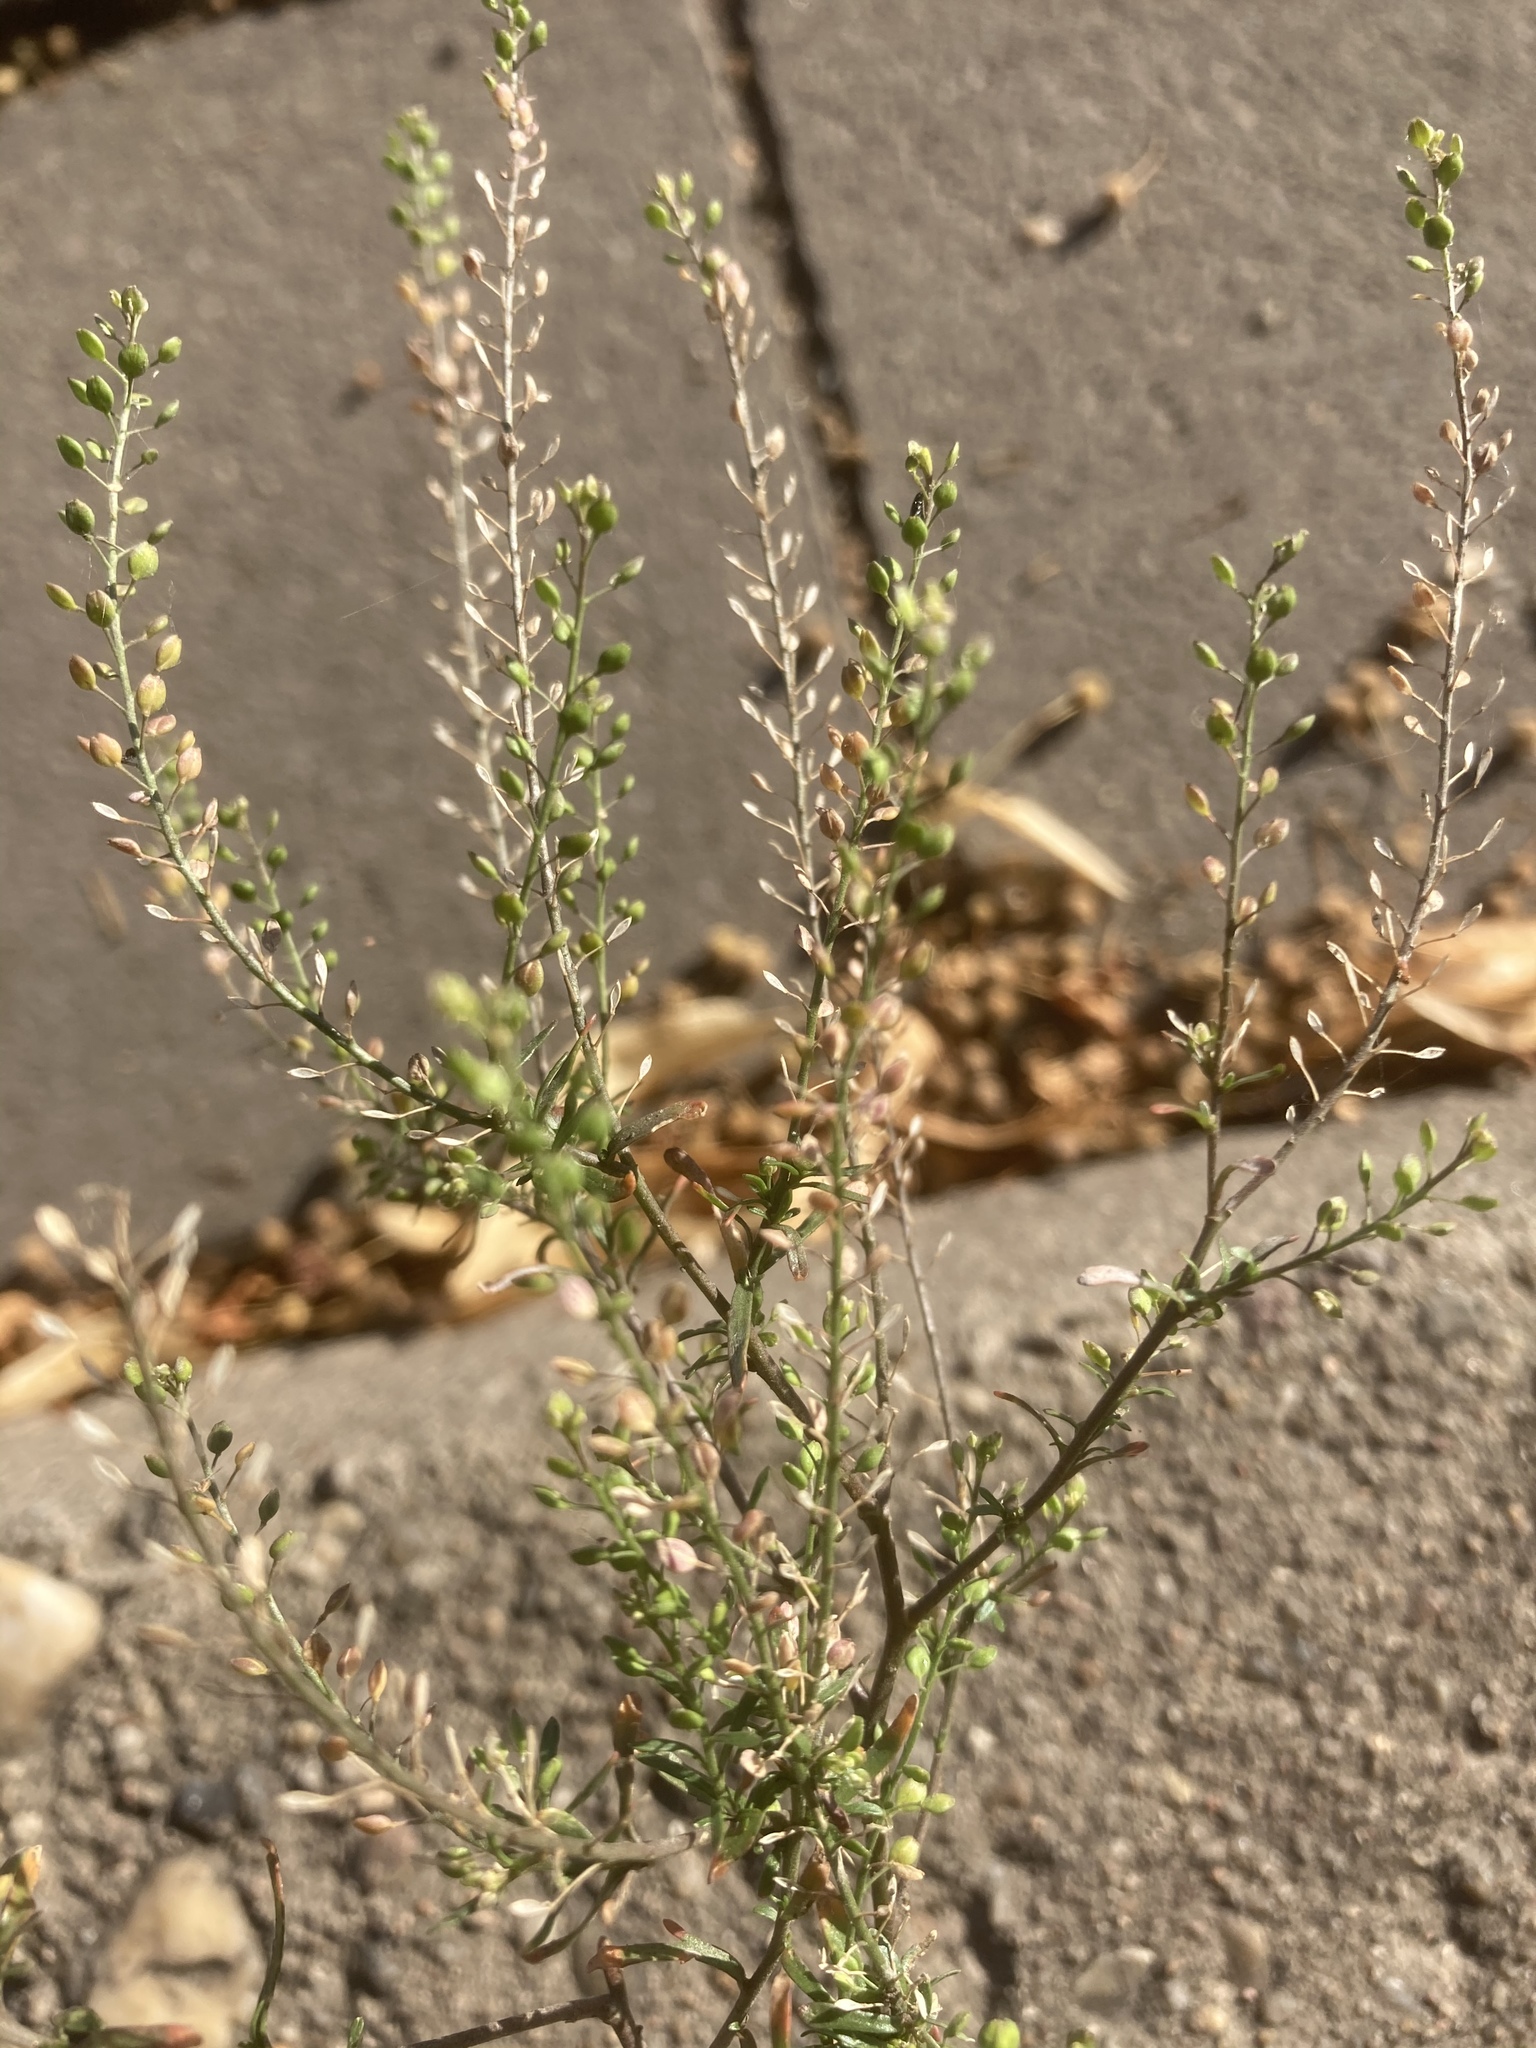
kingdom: Plantae
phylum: Tracheophyta
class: Magnoliopsida
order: Brassicales
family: Brassicaceae
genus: Lepidium
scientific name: Lepidium ruderale
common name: Narrow-leaved pepperwort
